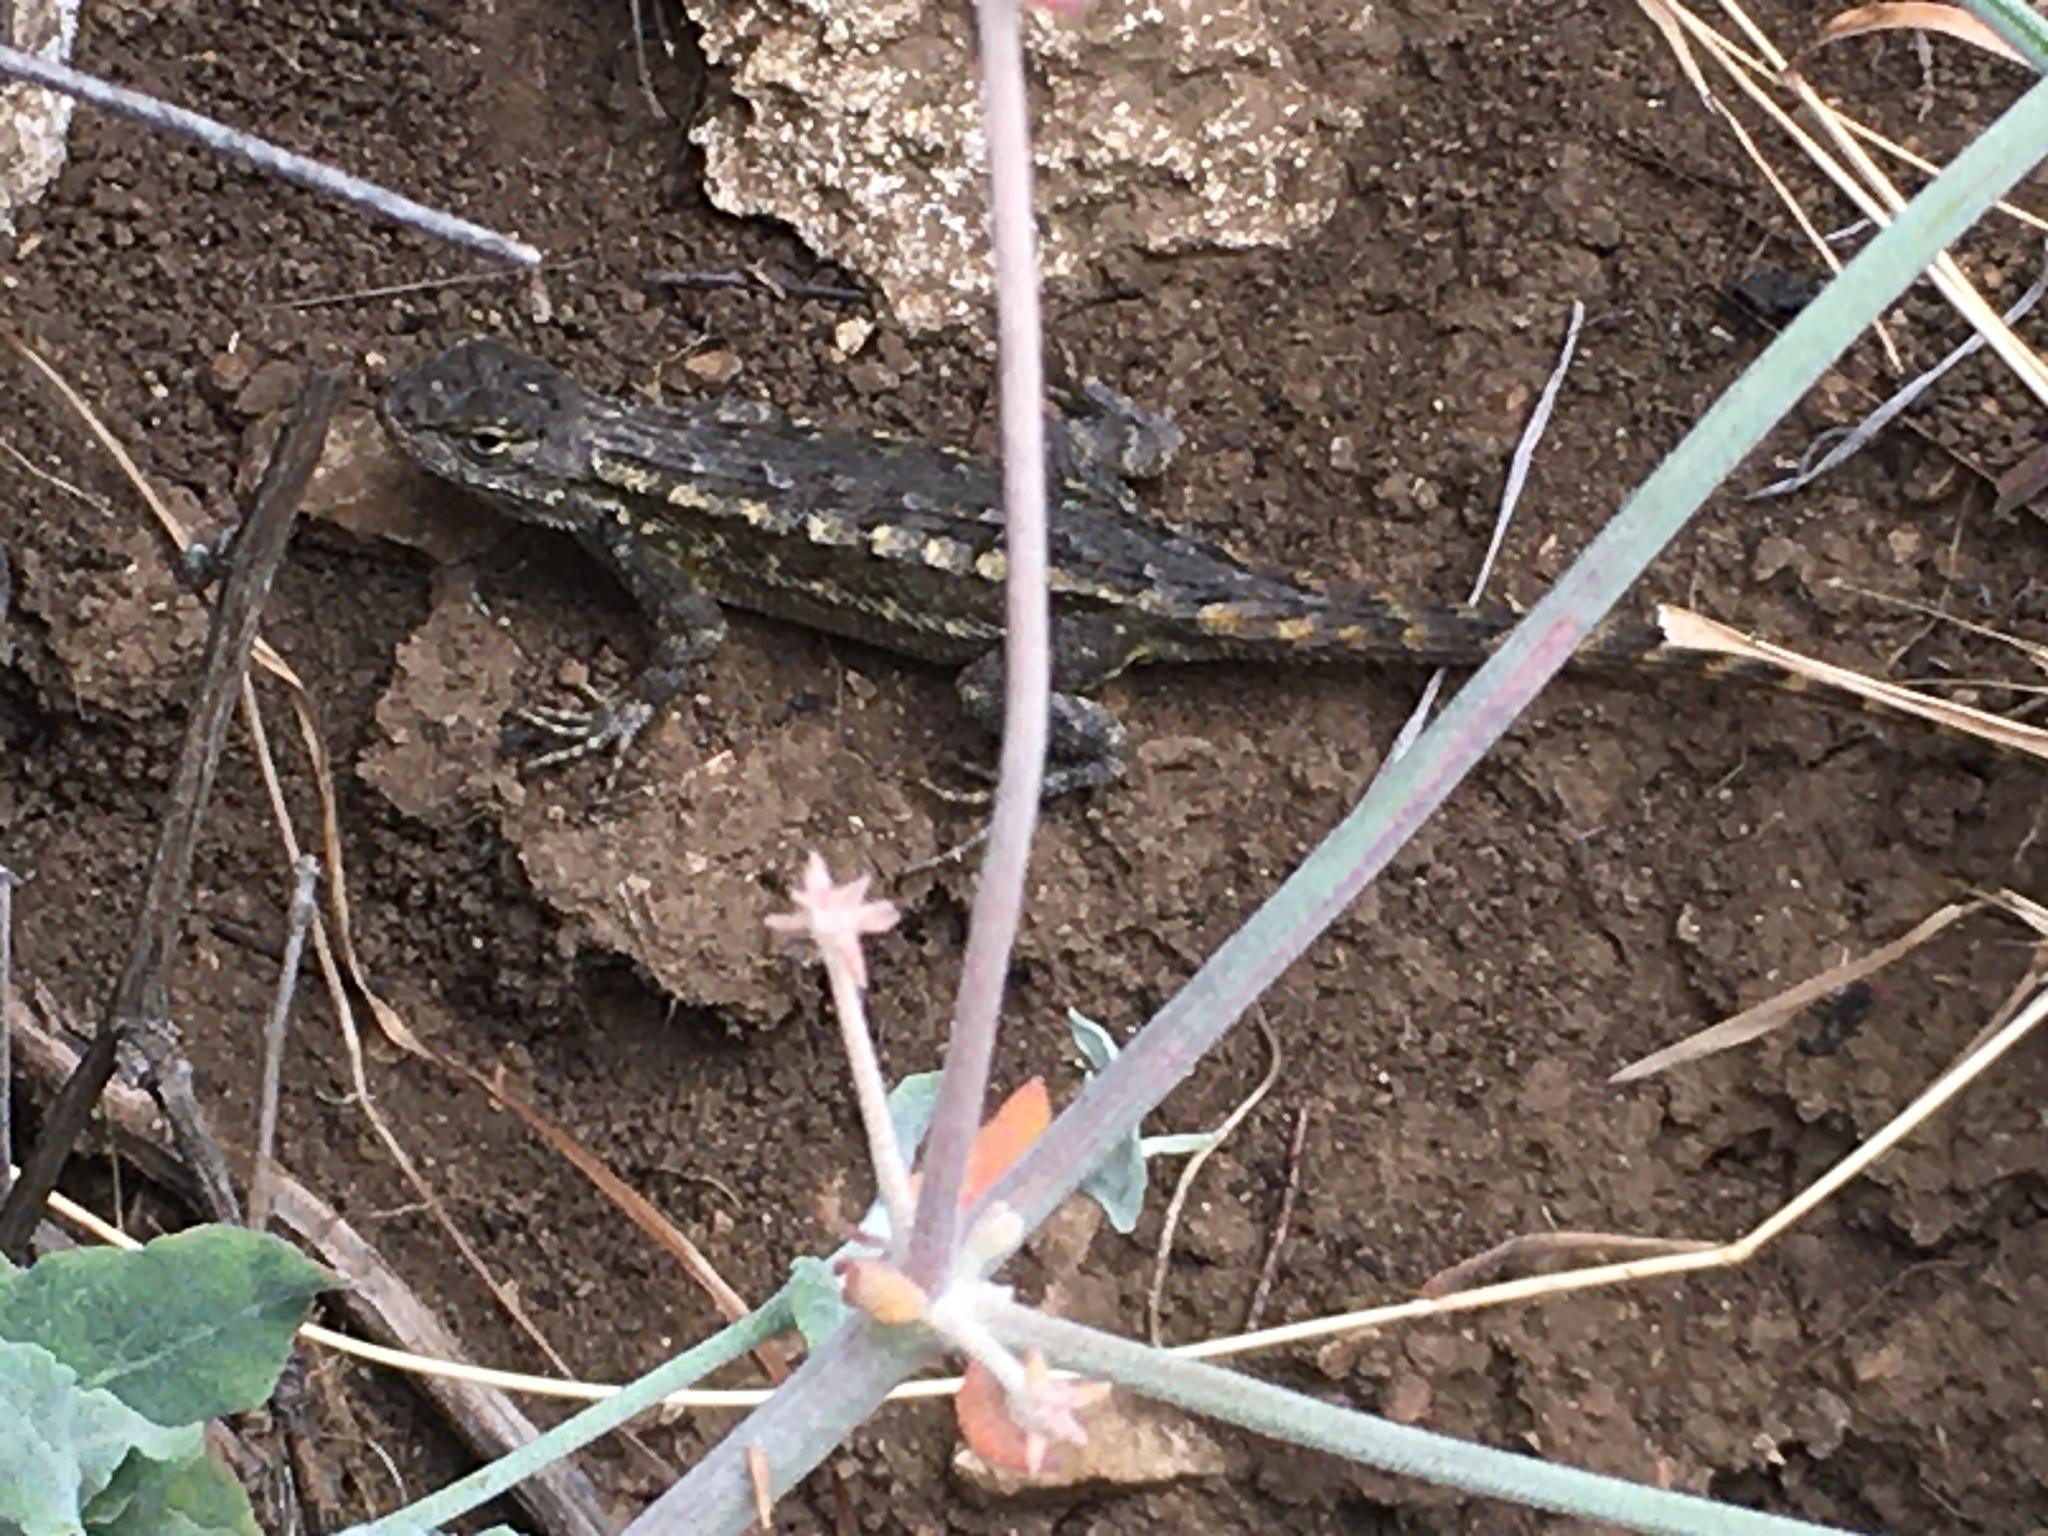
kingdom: Animalia
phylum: Chordata
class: Squamata
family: Phrynosomatidae
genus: Sceloporus
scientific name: Sceloporus occidentalis
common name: Western fence lizard
